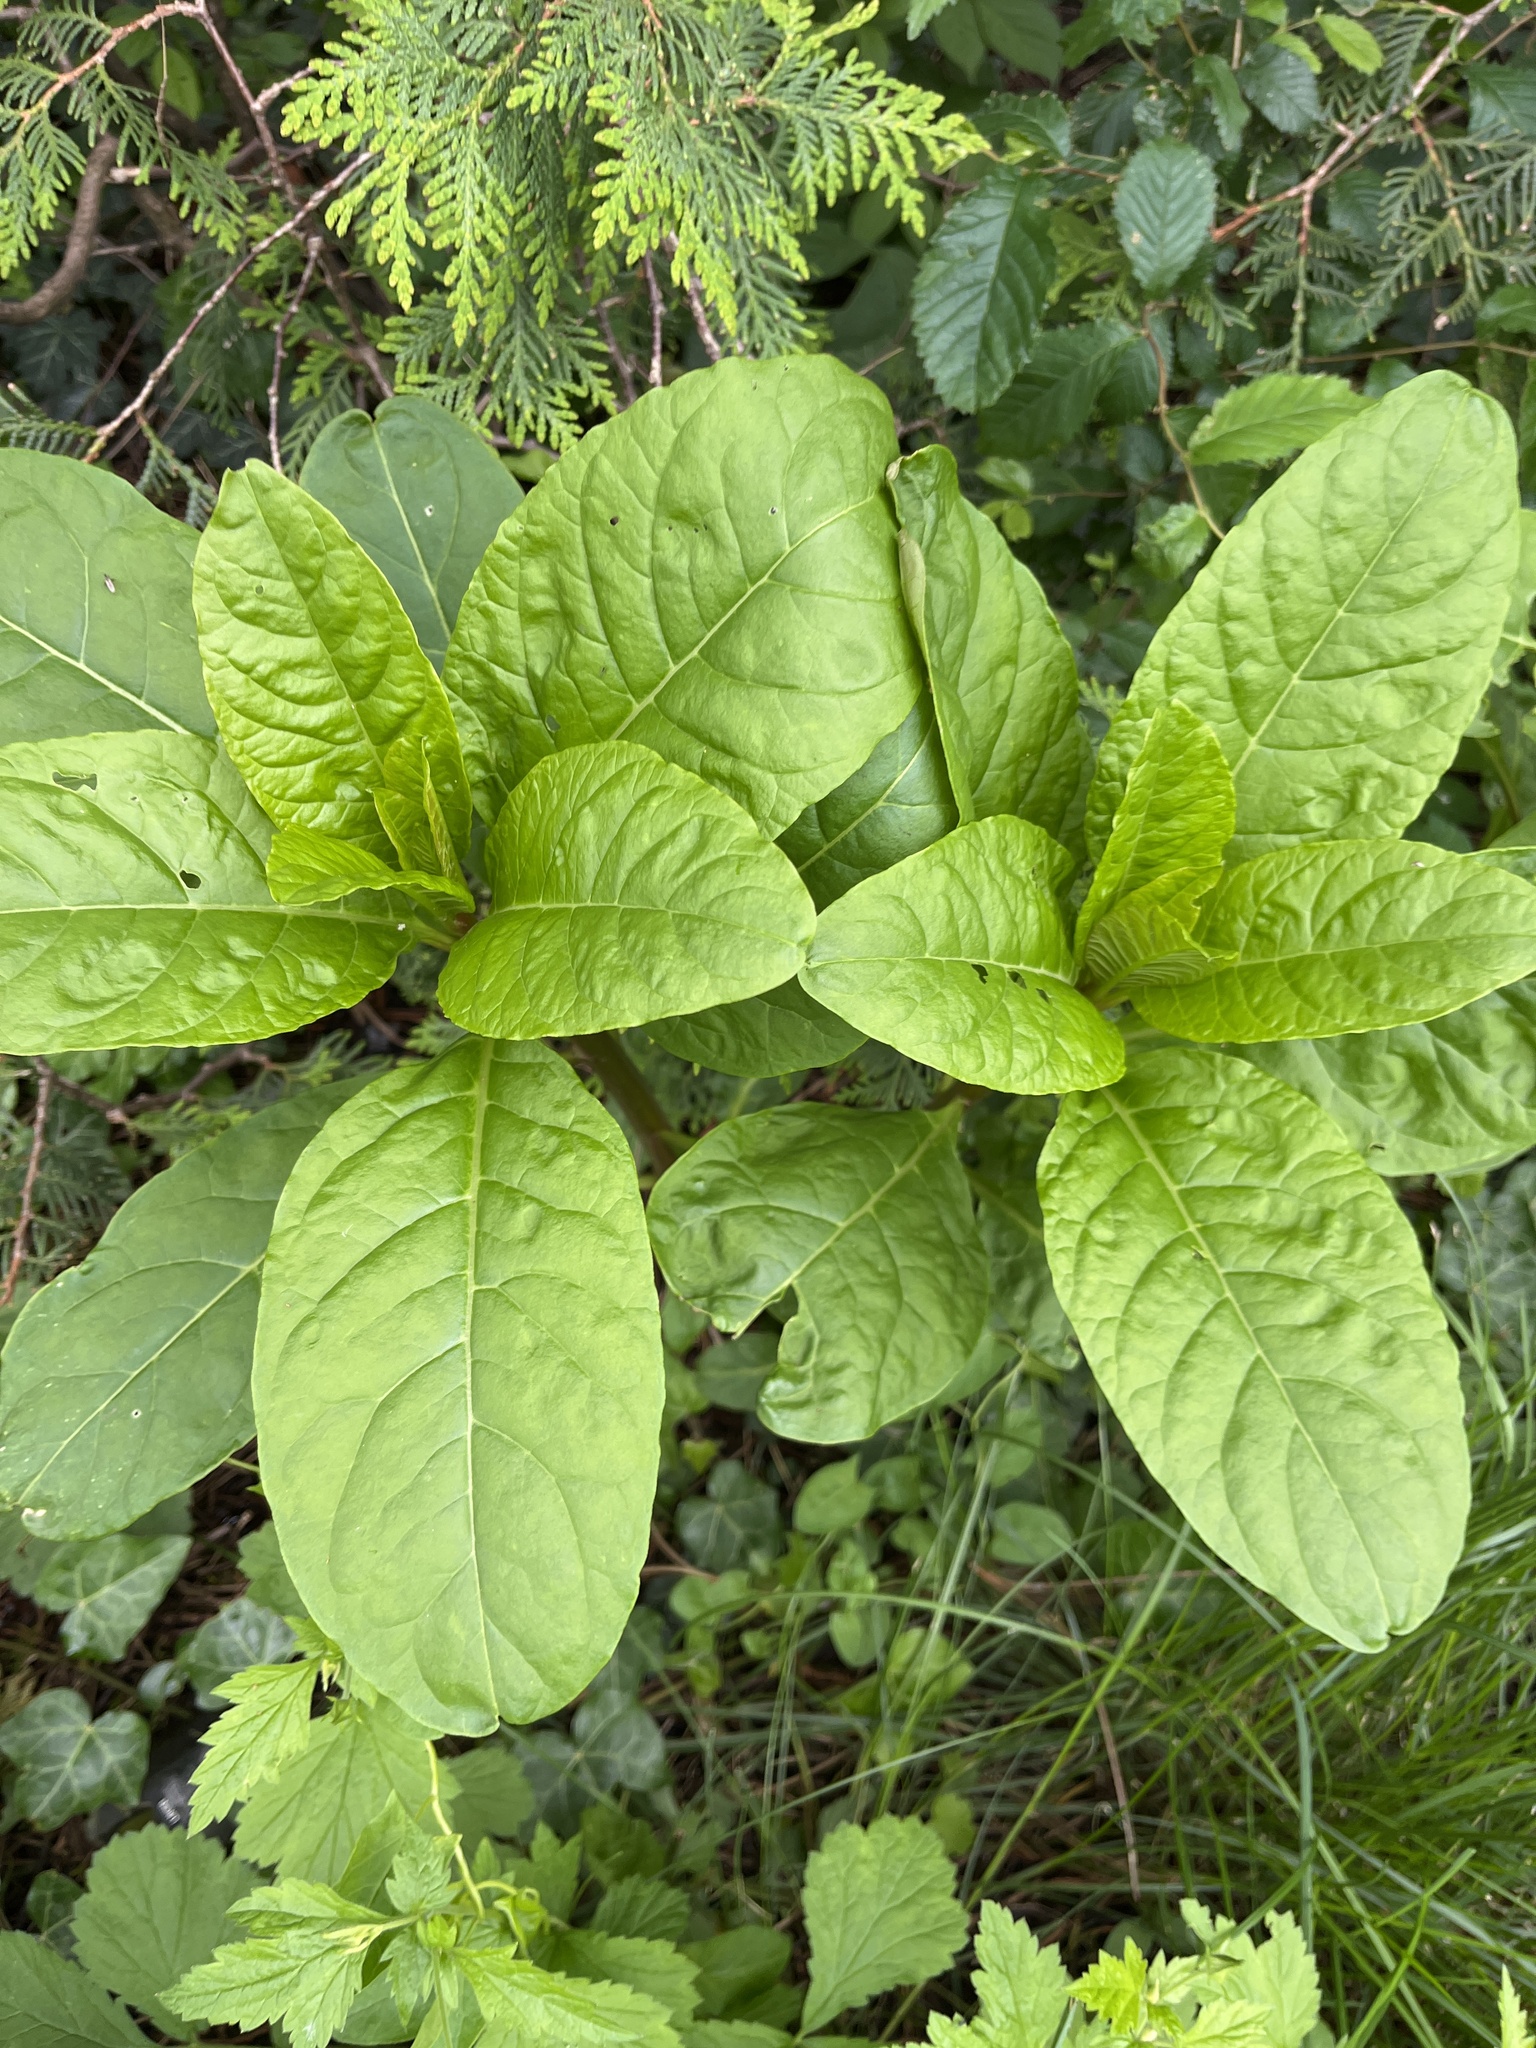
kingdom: Plantae
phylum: Tracheophyta
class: Magnoliopsida
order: Caryophyllales
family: Phytolaccaceae
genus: Phytolacca
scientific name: Phytolacca americana
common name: American pokeweed
